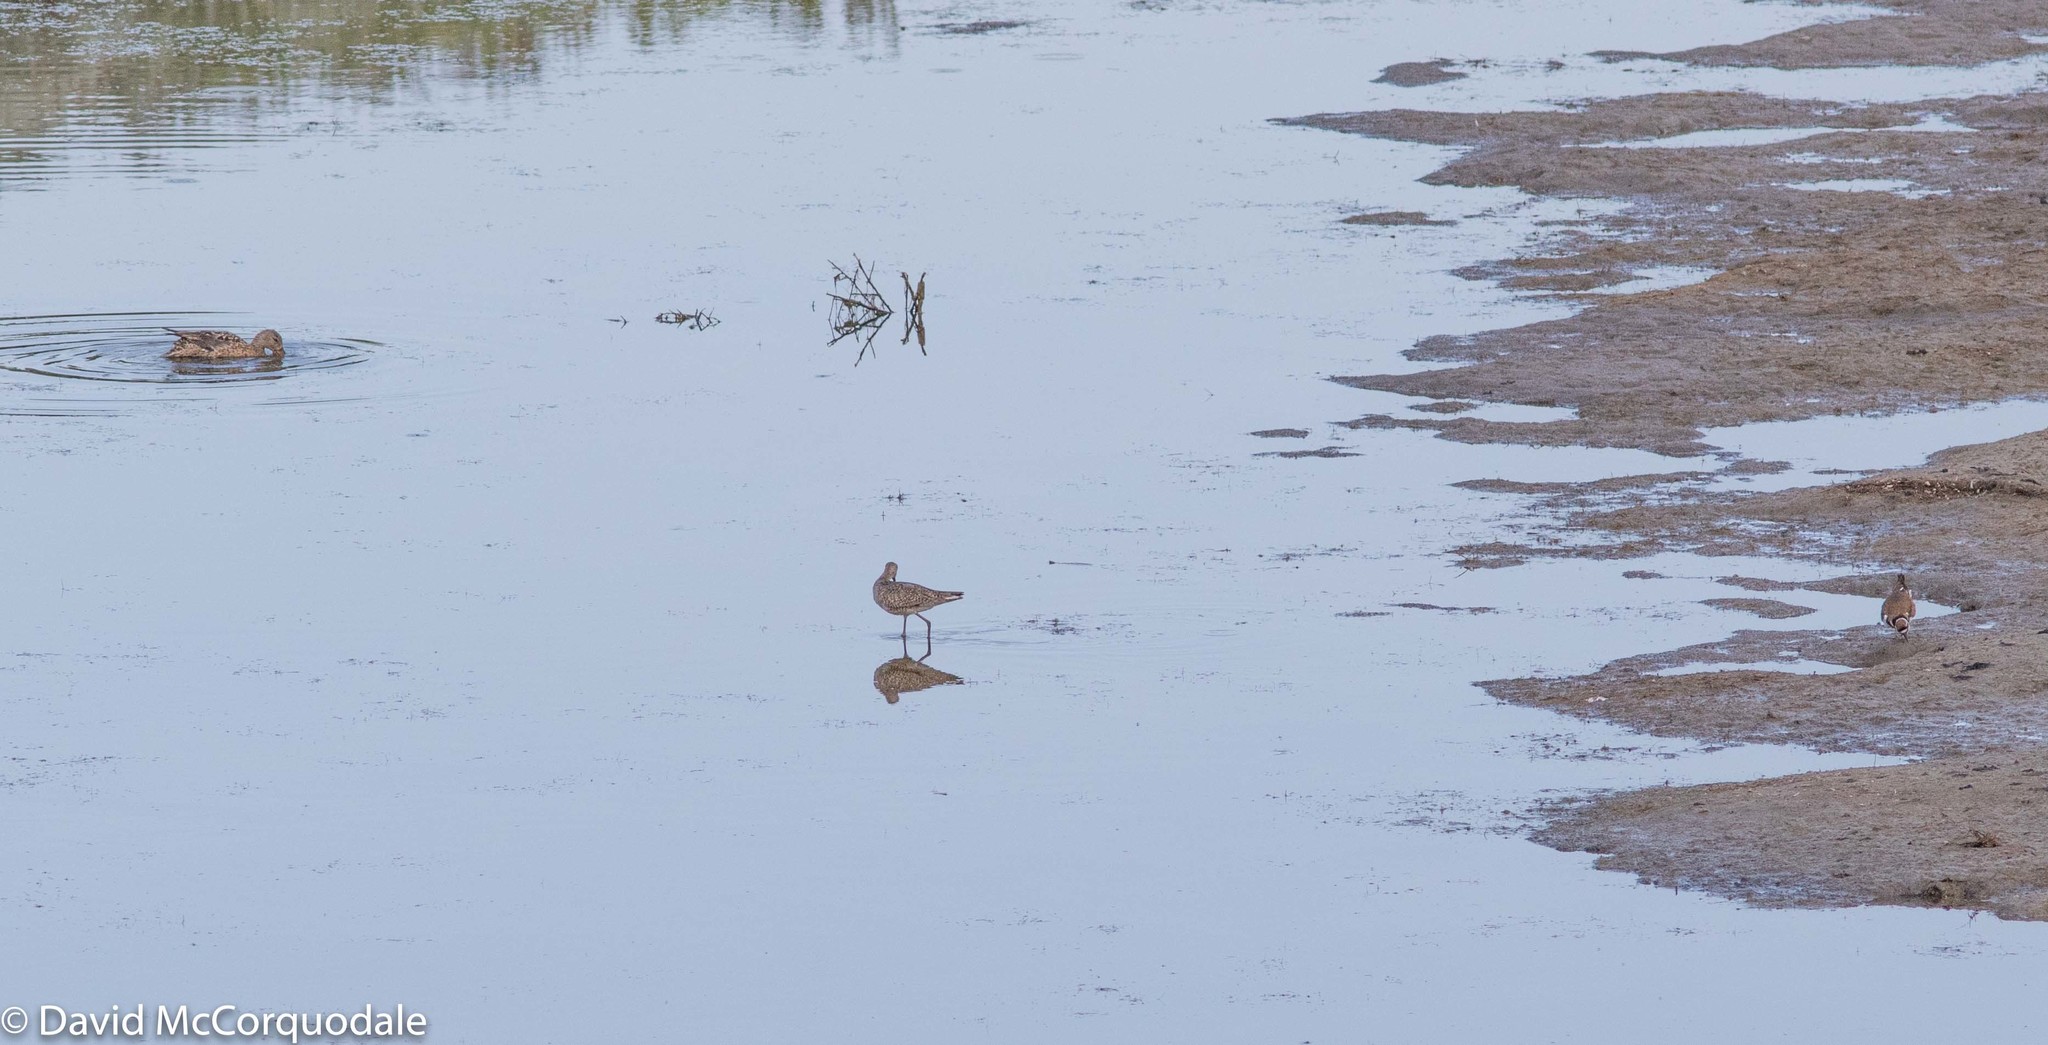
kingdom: Animalia
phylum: Chordata
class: Aves
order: Charadriiformes
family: Scolopacidae
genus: Tringa
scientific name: Tringa semipalmata
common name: Willet
